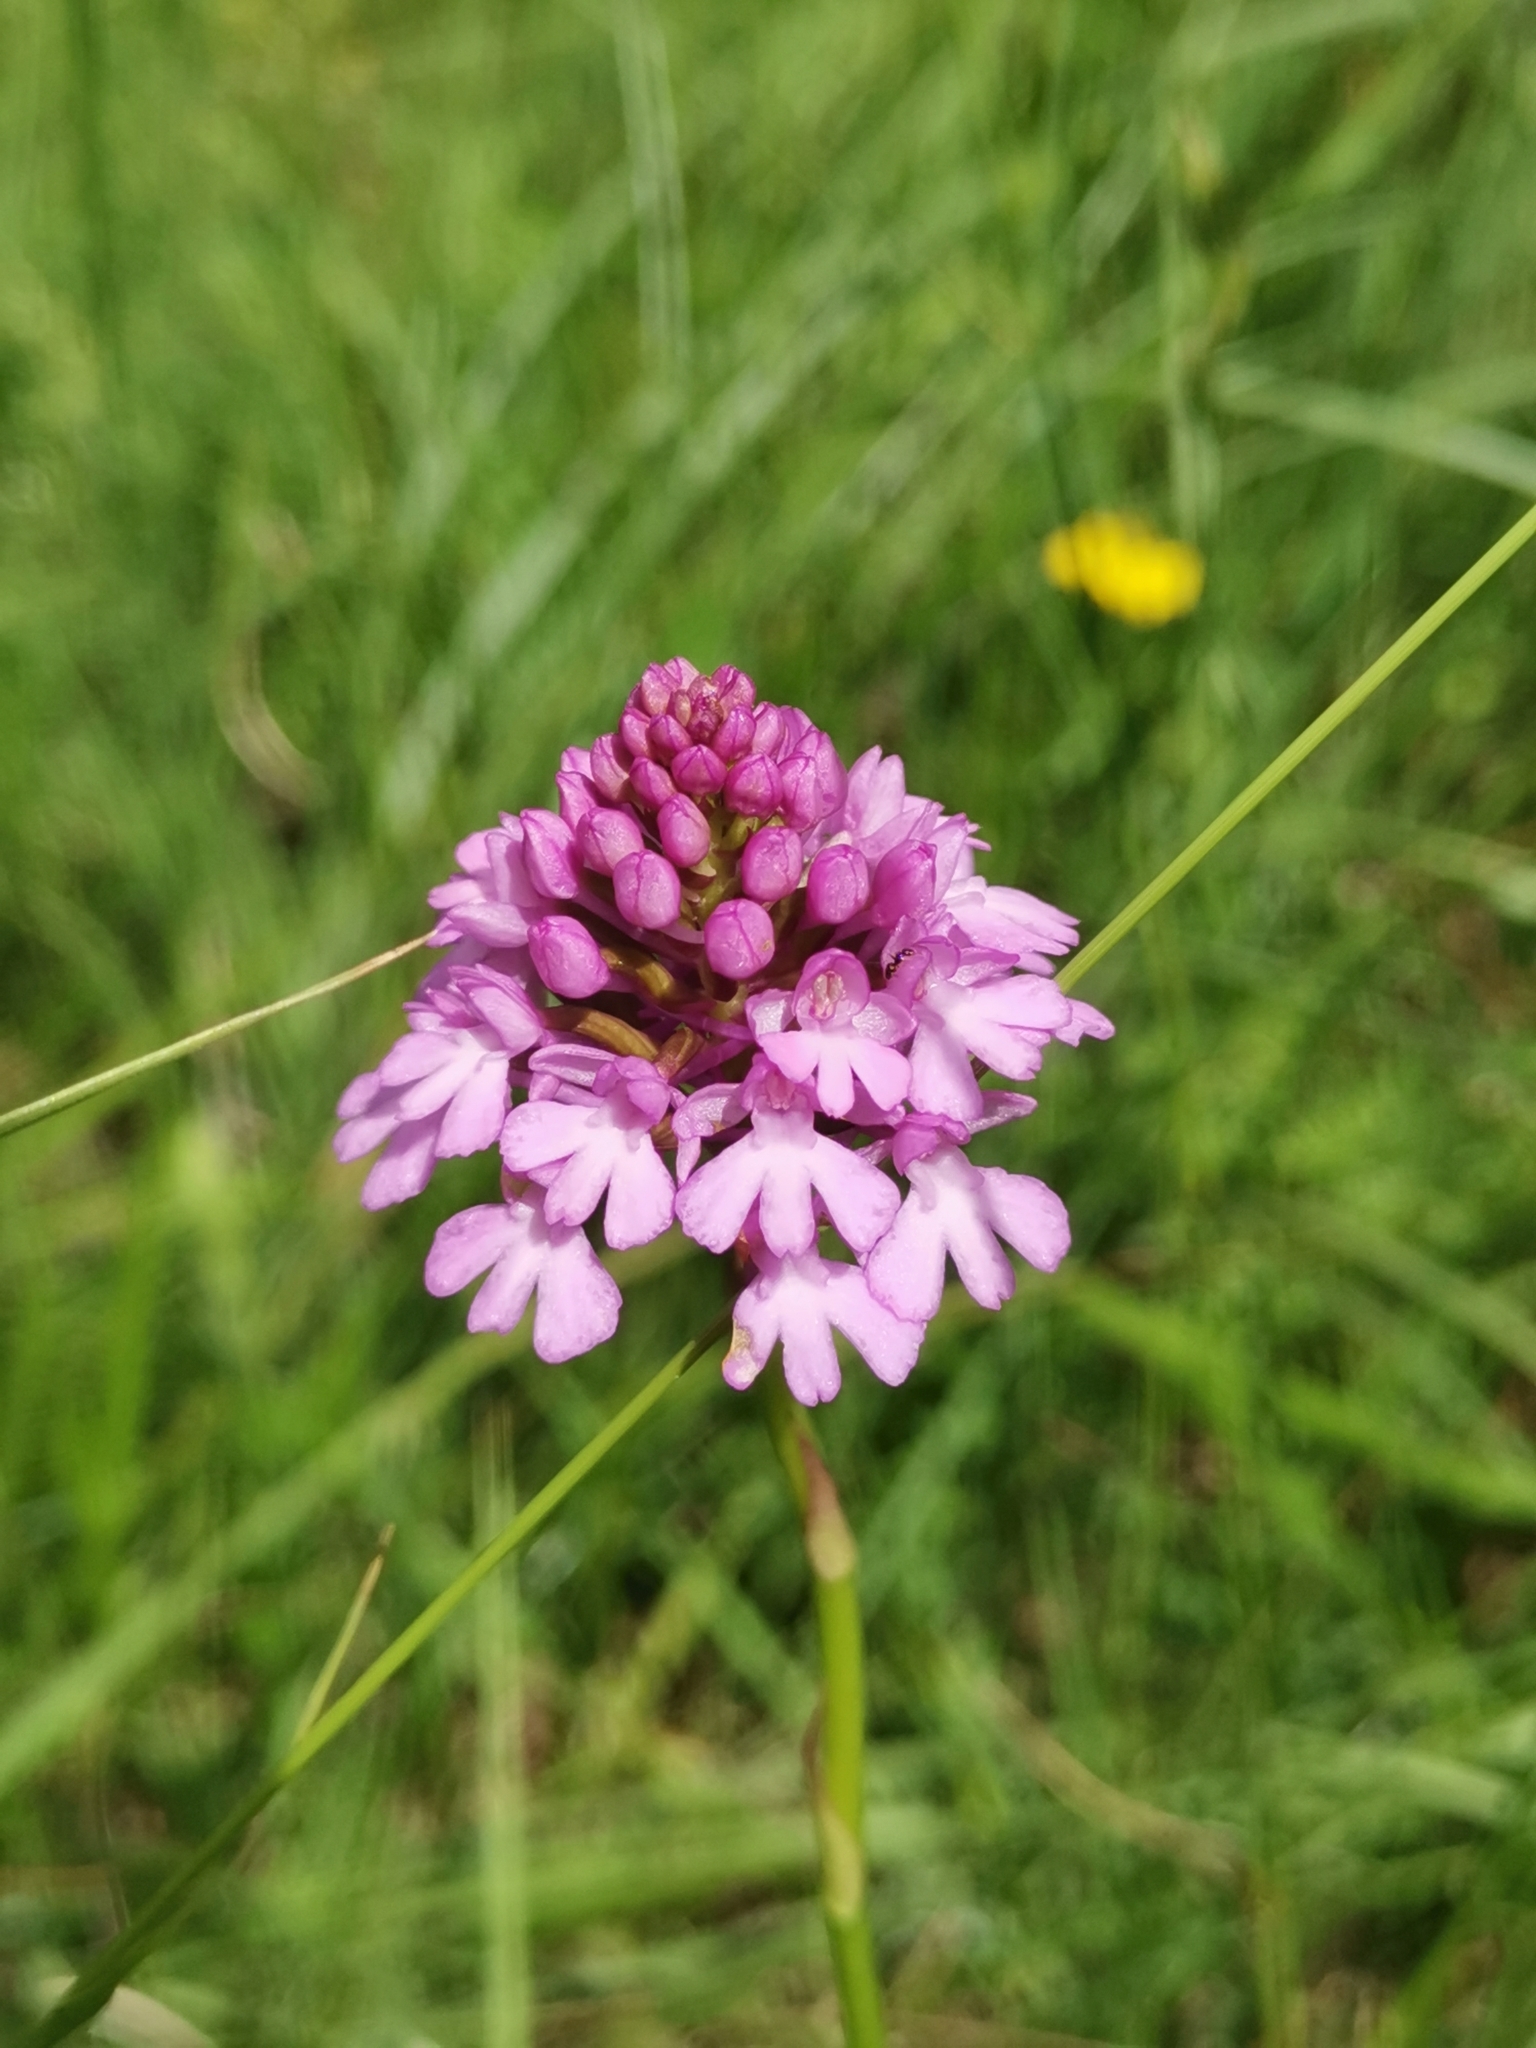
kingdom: Plantae
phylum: Tracheophyta
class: Liliopsida
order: Asparagales
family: Orchidaceae
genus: Anacamptis
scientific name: Anacamptis pyramidalis
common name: Pyramidal orchid
